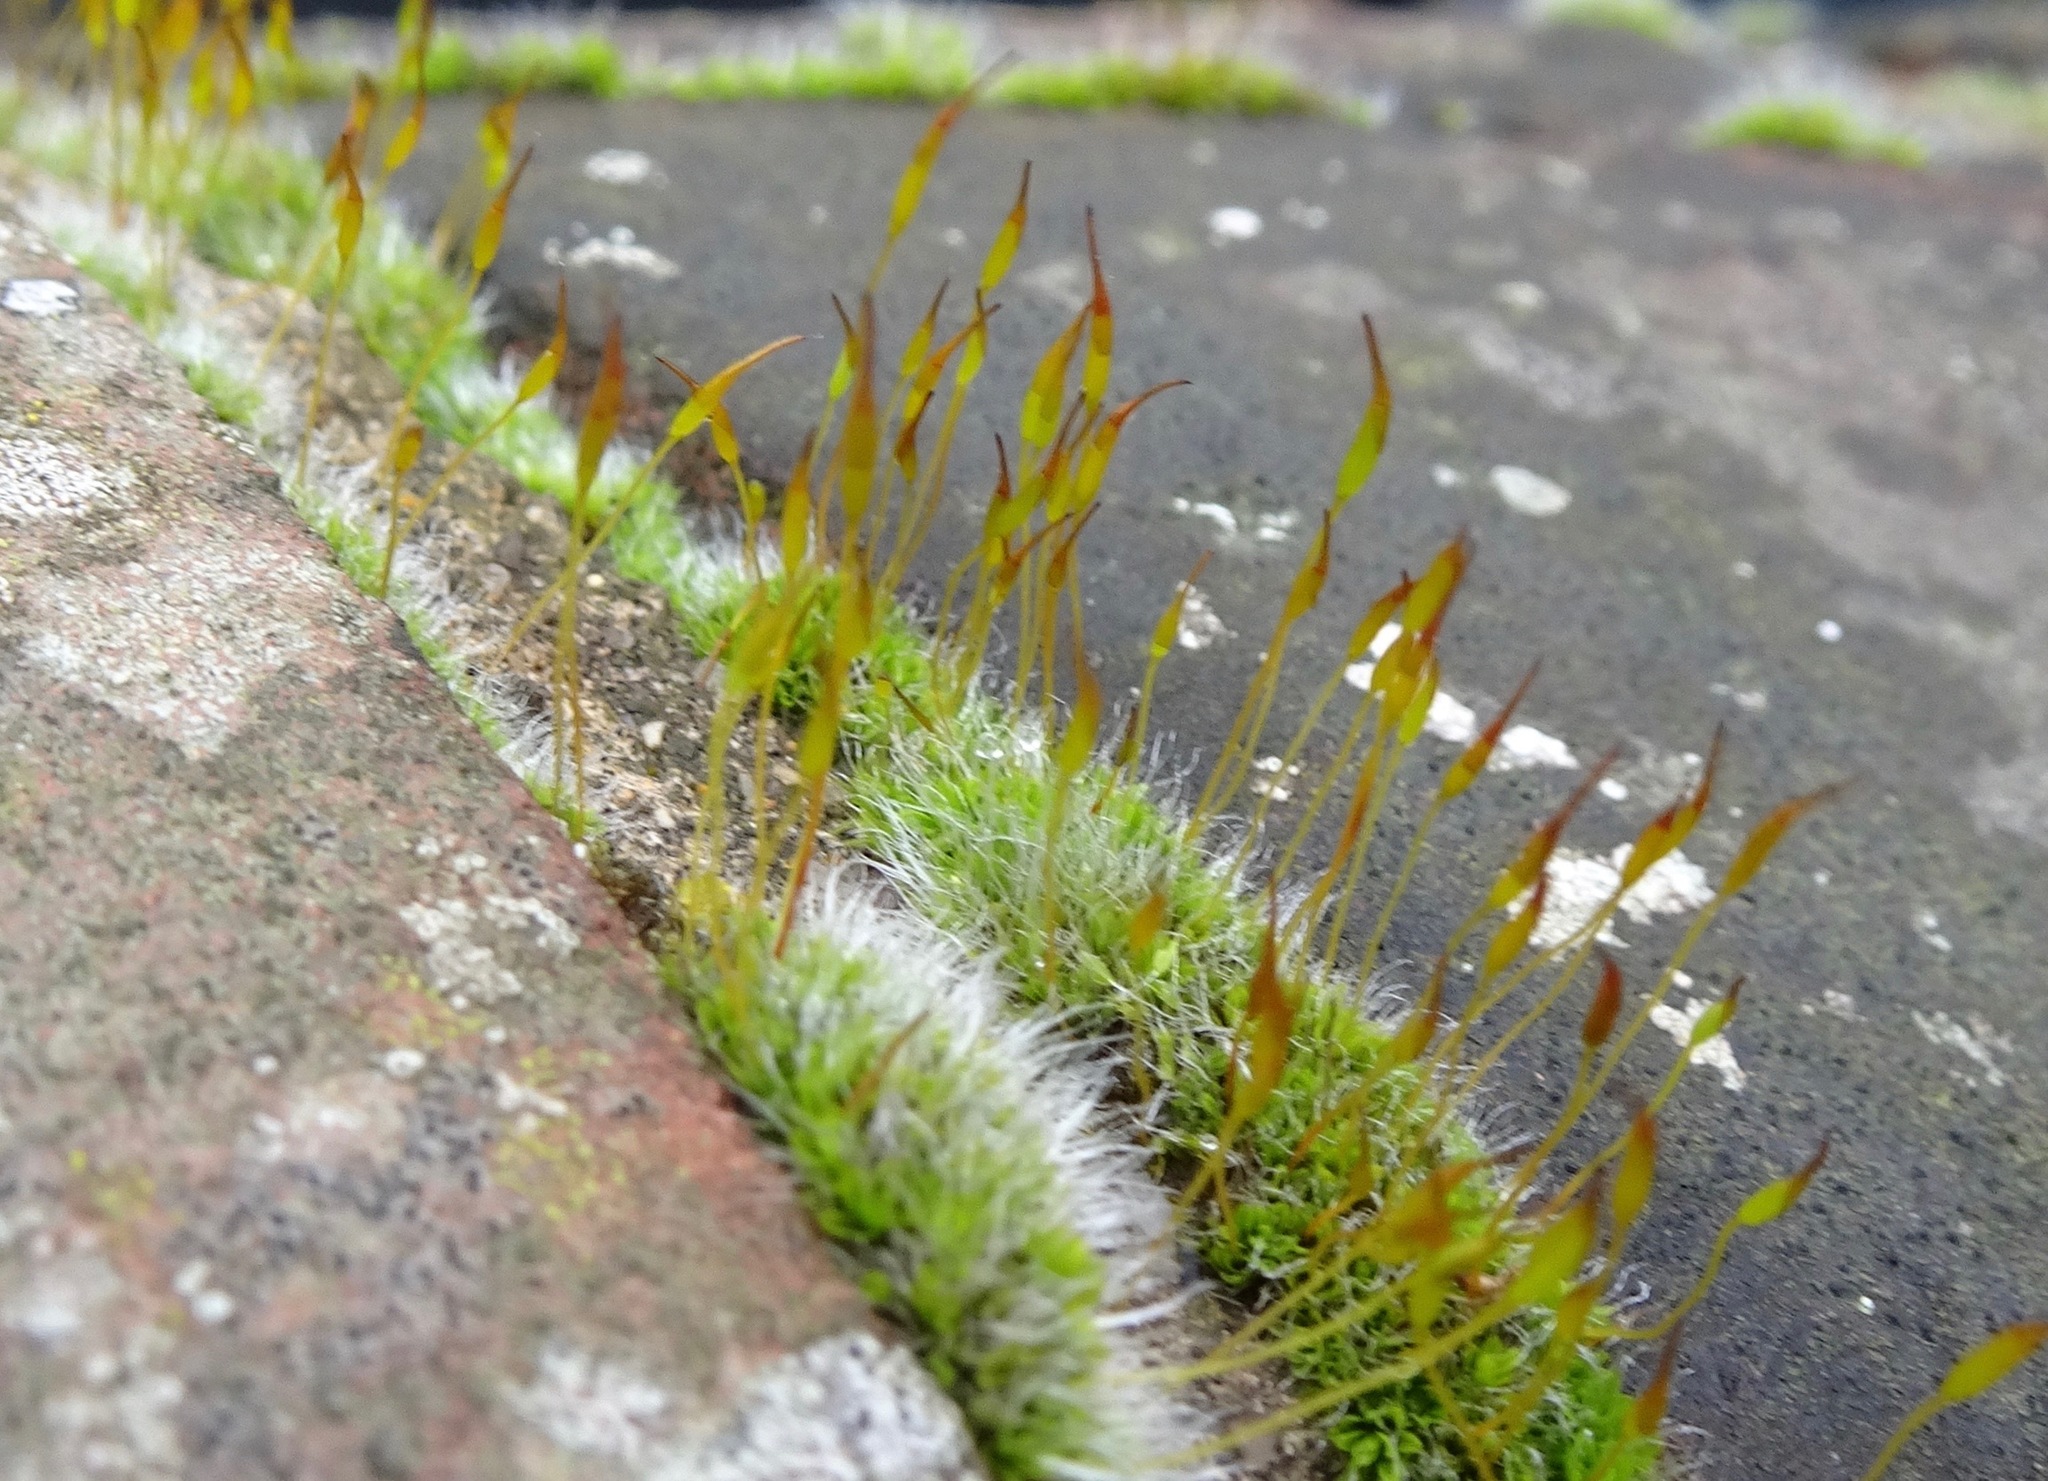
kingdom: Plantae
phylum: Bryophyta
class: Bryopsida
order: Pottiales
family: Pottiaceae
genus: Tortula
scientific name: Tortula muralis
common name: Wall screw-moss
